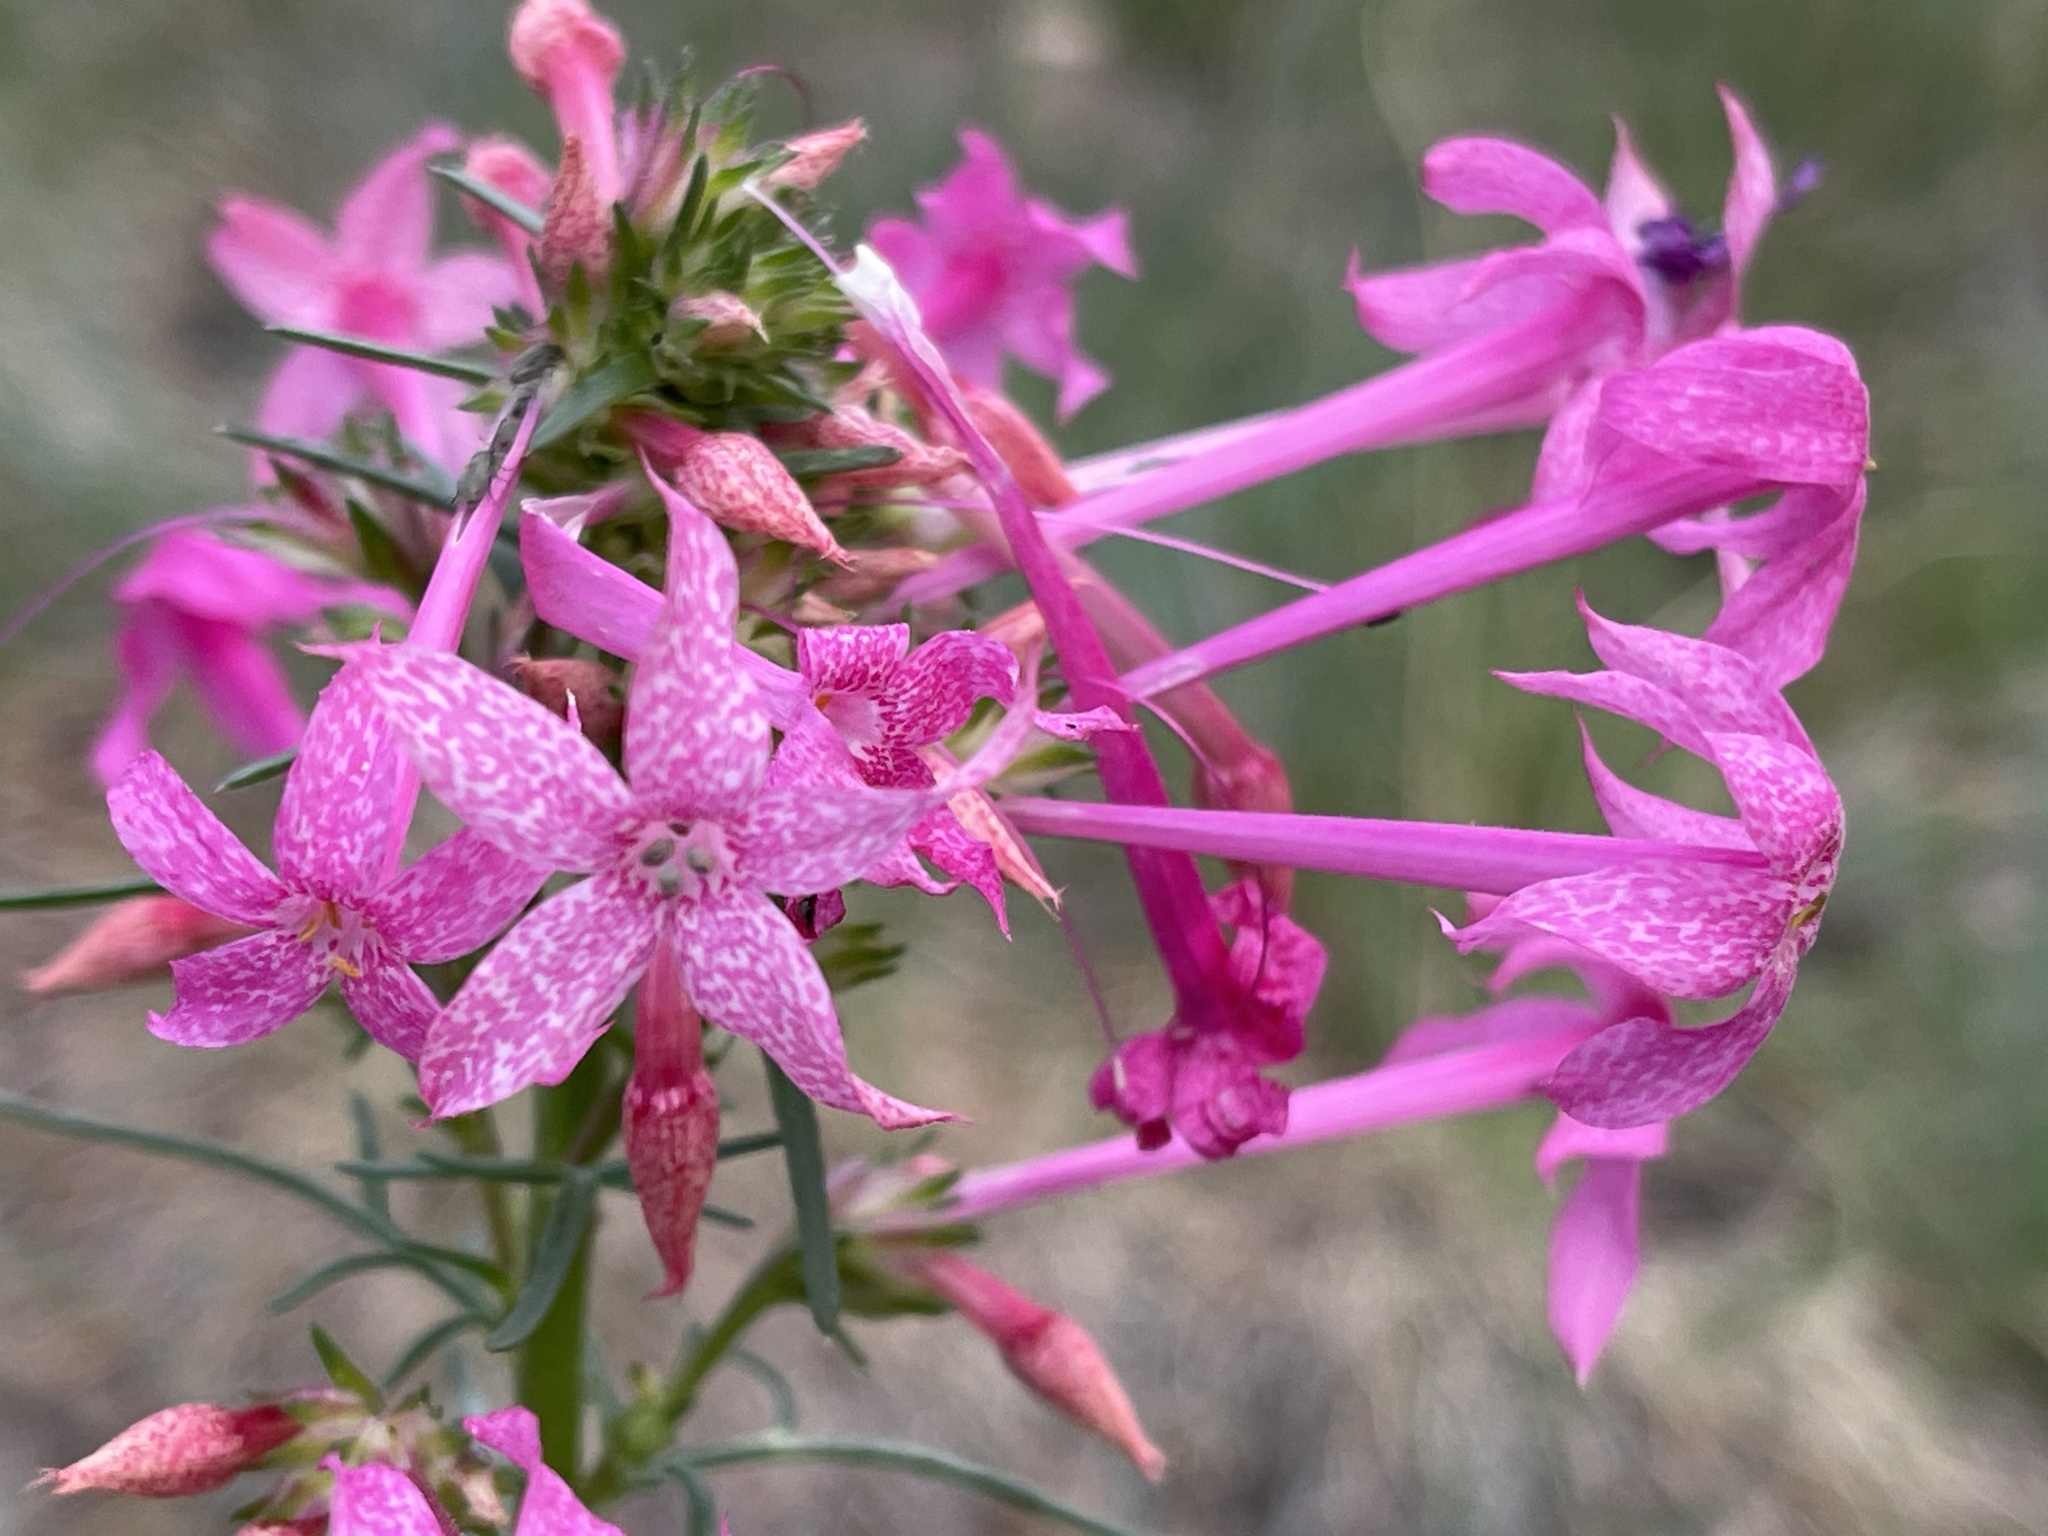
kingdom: Plantae
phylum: Tracheophyta
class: Magnoliopsida
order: Ericales
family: Polemoniaceae
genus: Ipomopsis
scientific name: Ipomopsis tenuituba
